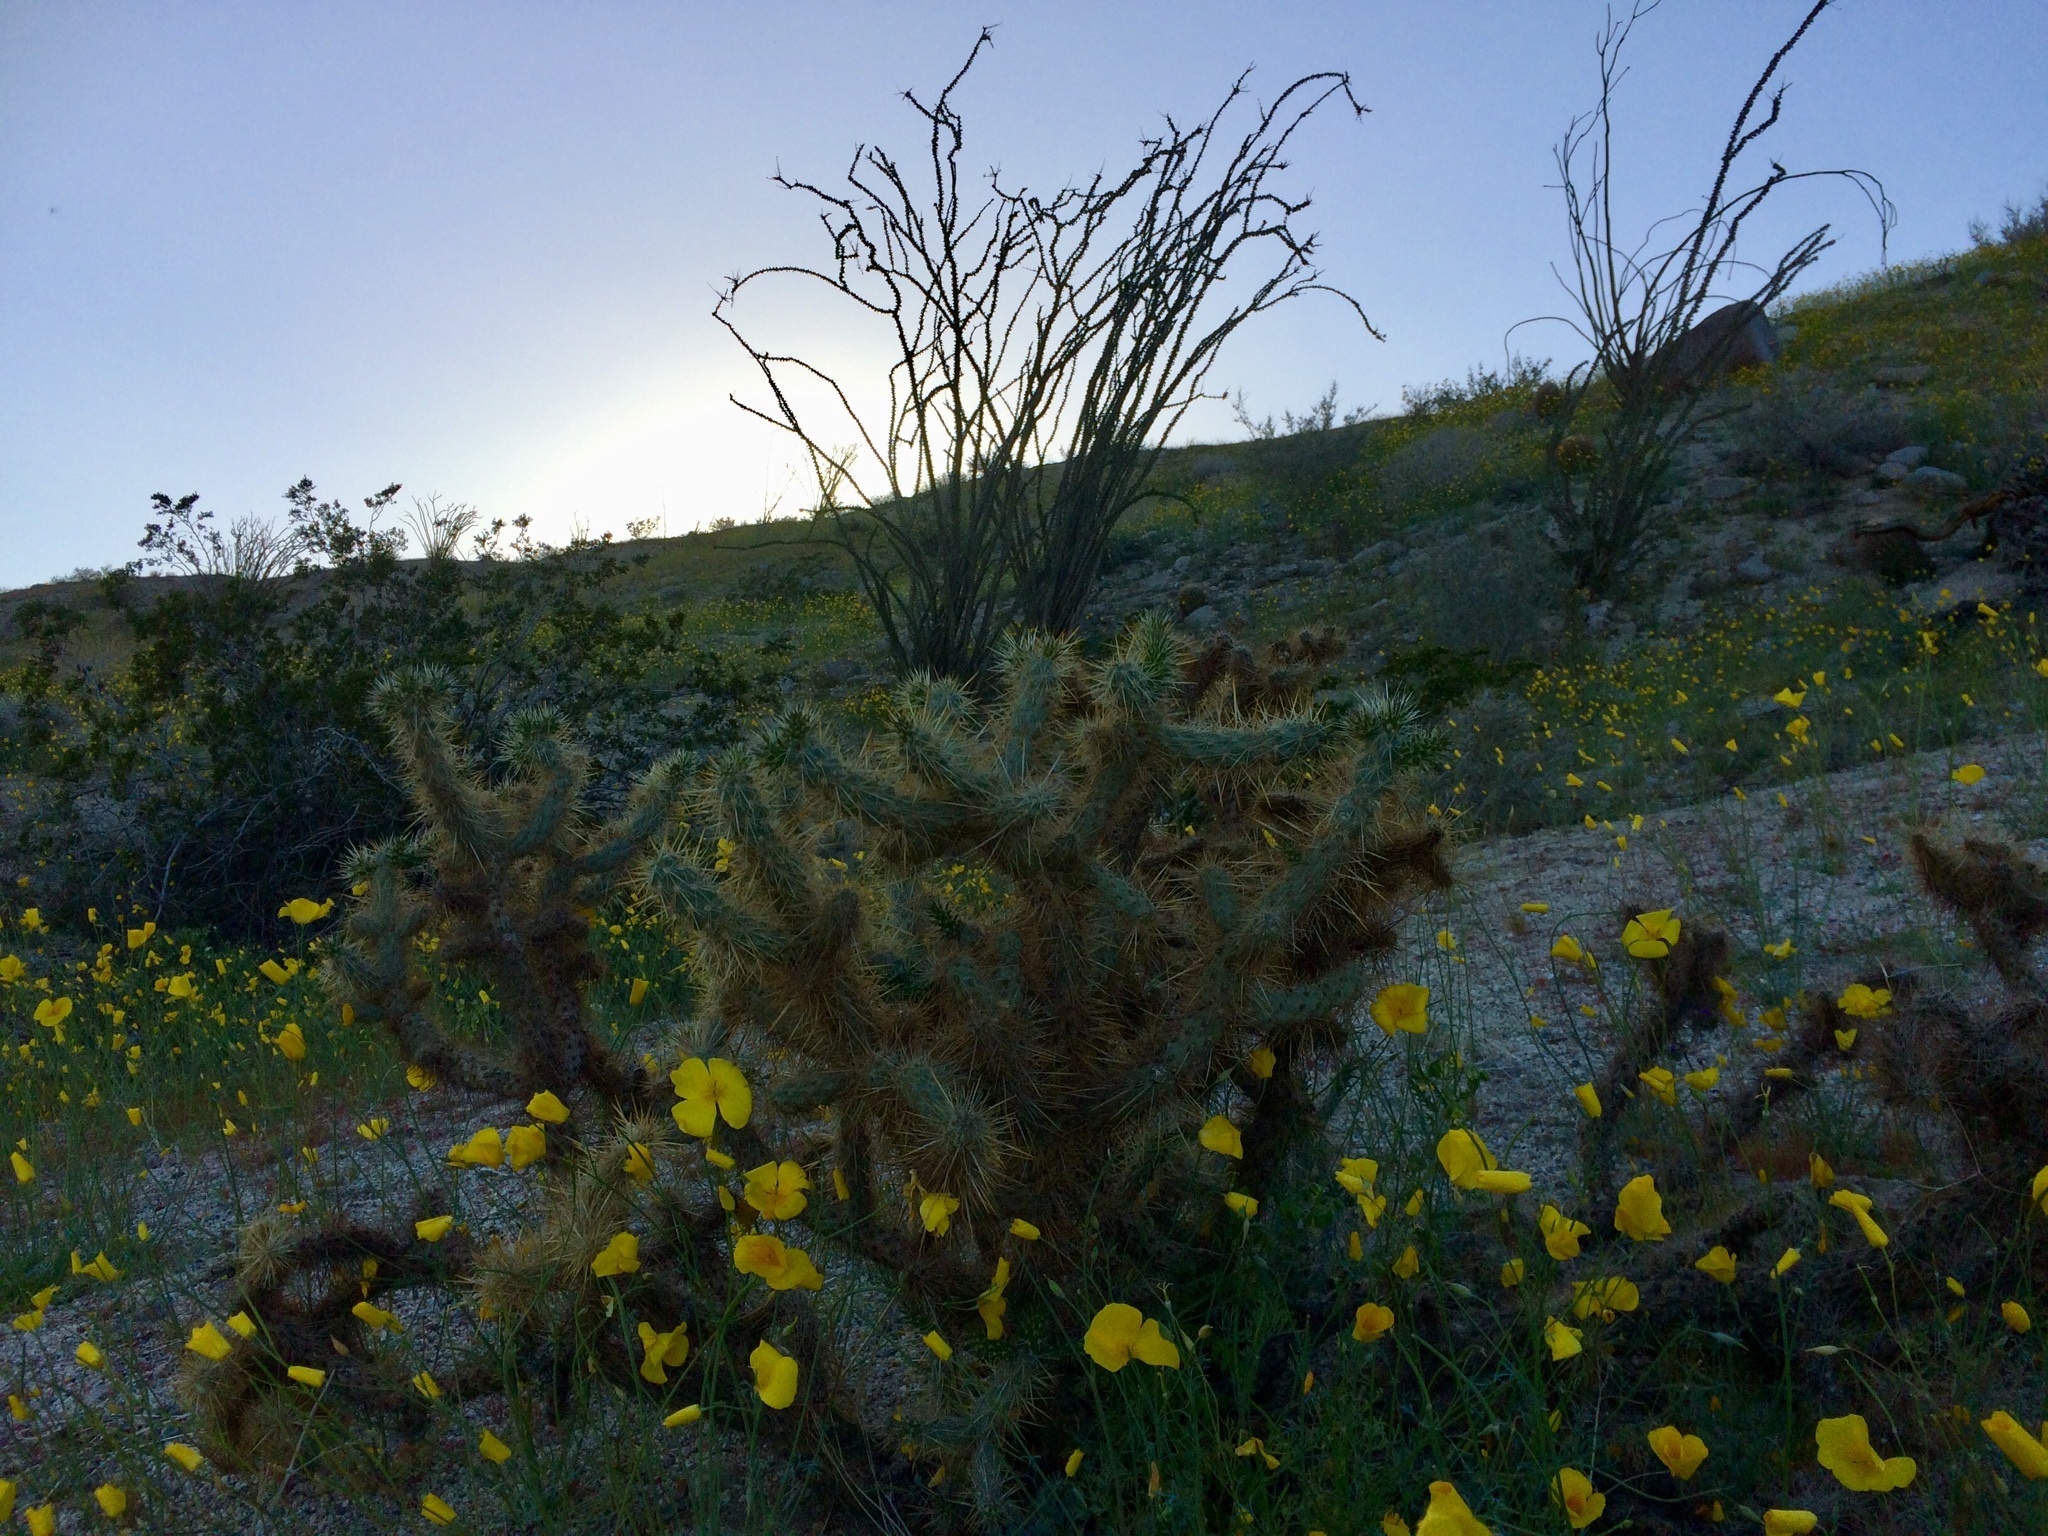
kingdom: Plantae
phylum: Tracheophyta
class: Magnoliopsida
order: Caryophyllales
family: Cactaceae
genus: Cylindropuntia
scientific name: Cylindropuntia ganderi
